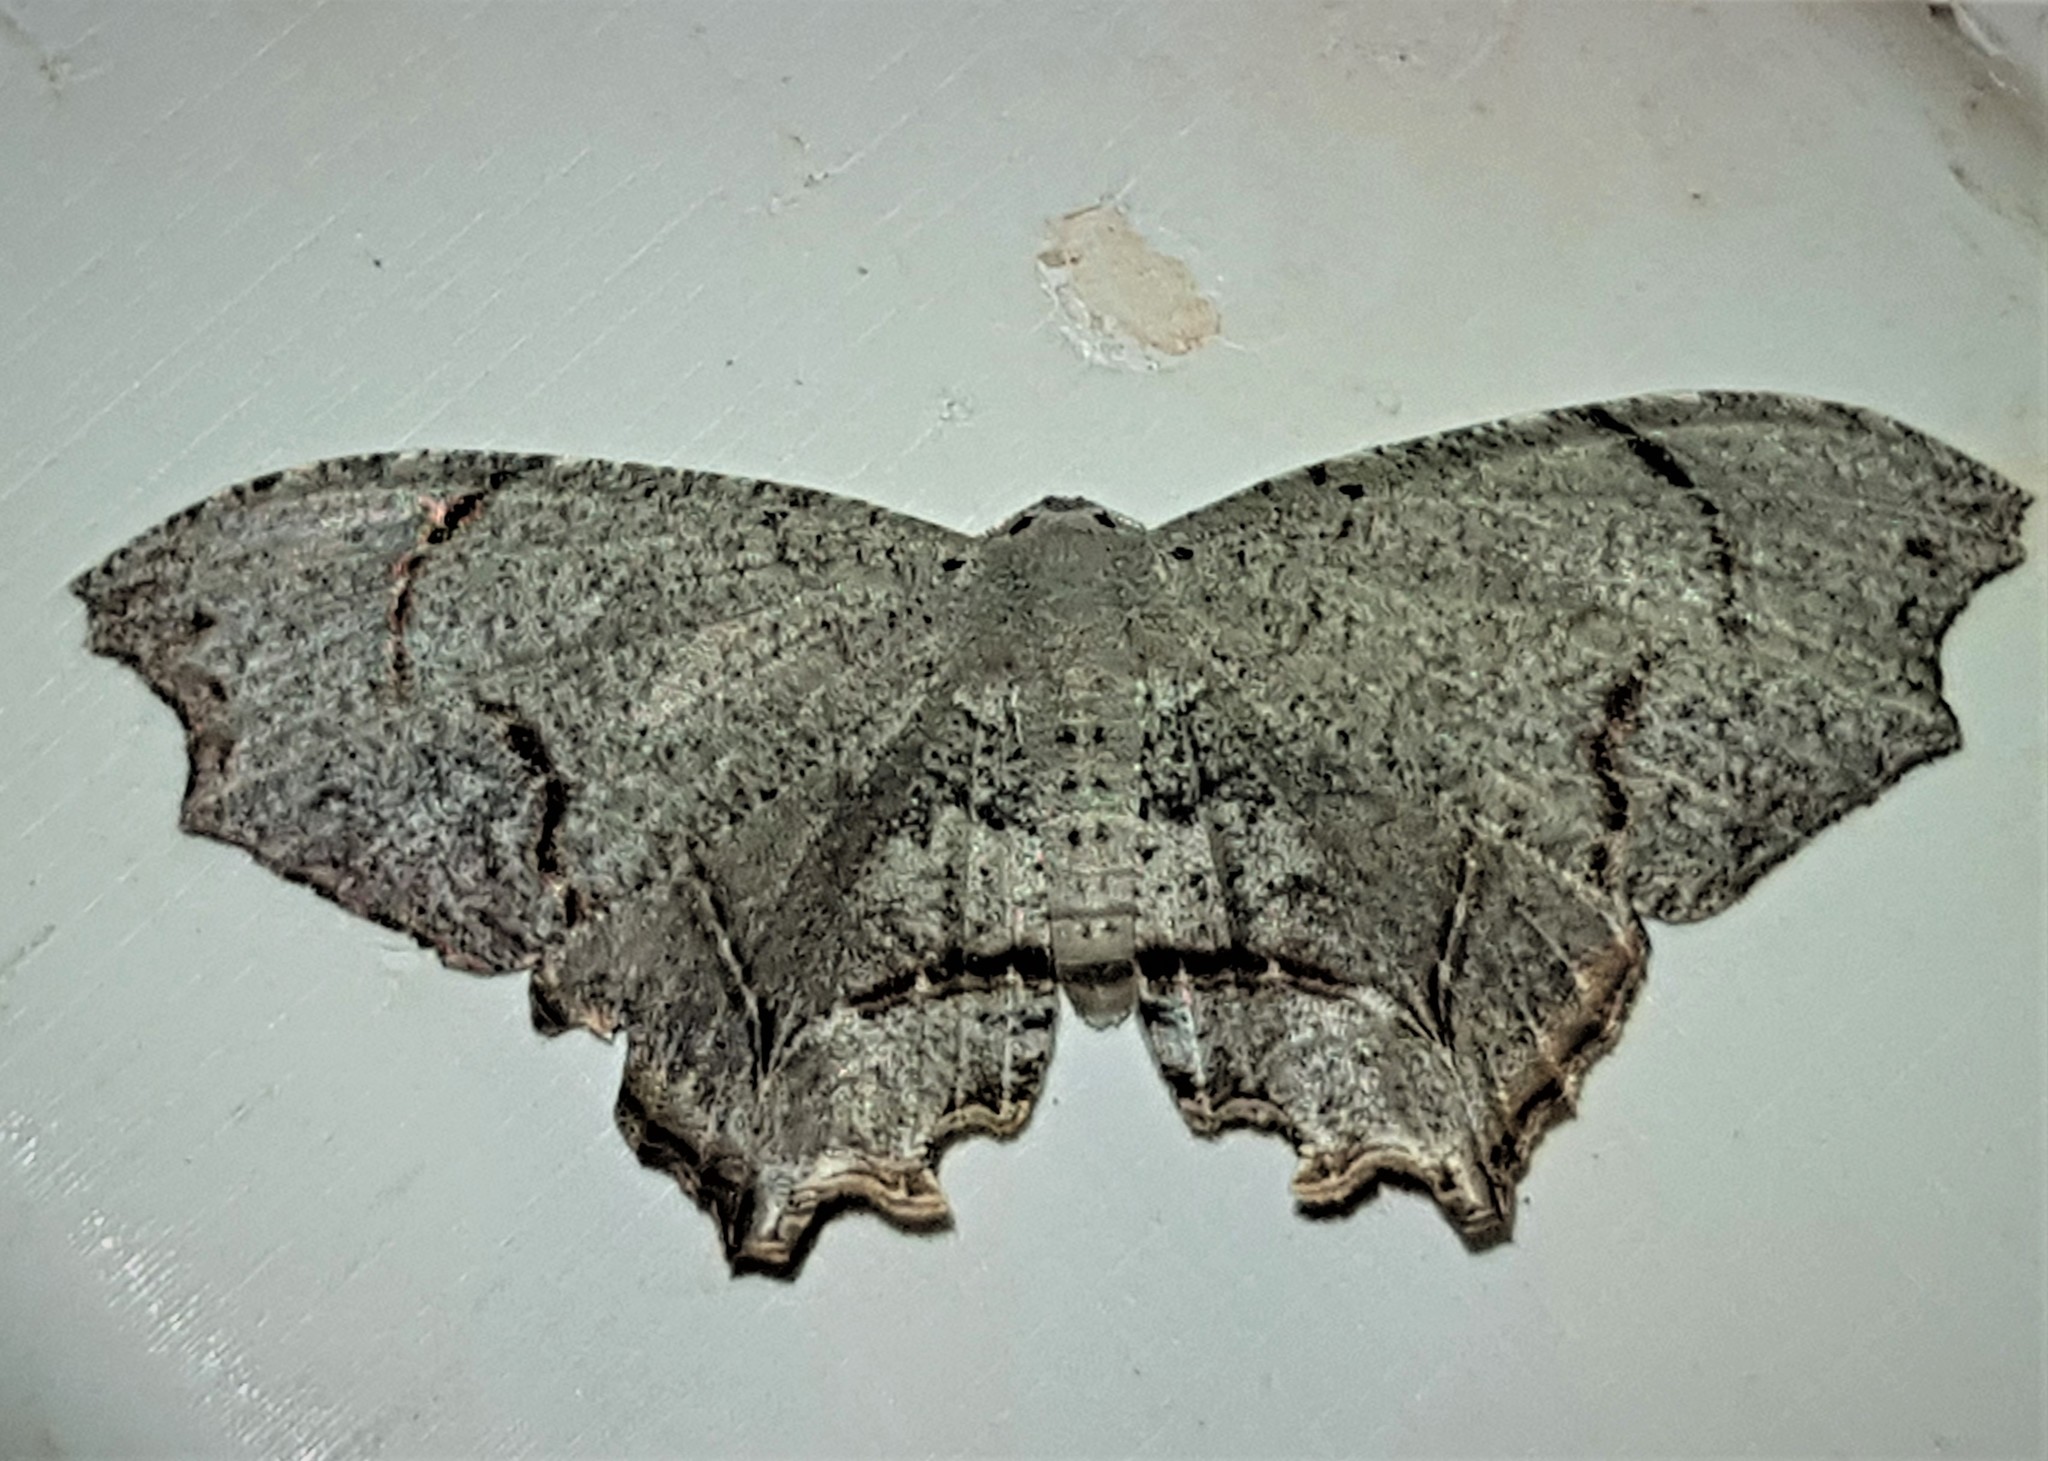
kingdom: Animalia
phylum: Arthropoda
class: Insecta
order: Lepidoptera
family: Uraniidae
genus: Trotorhombia
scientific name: Trotorhombia metachromata
